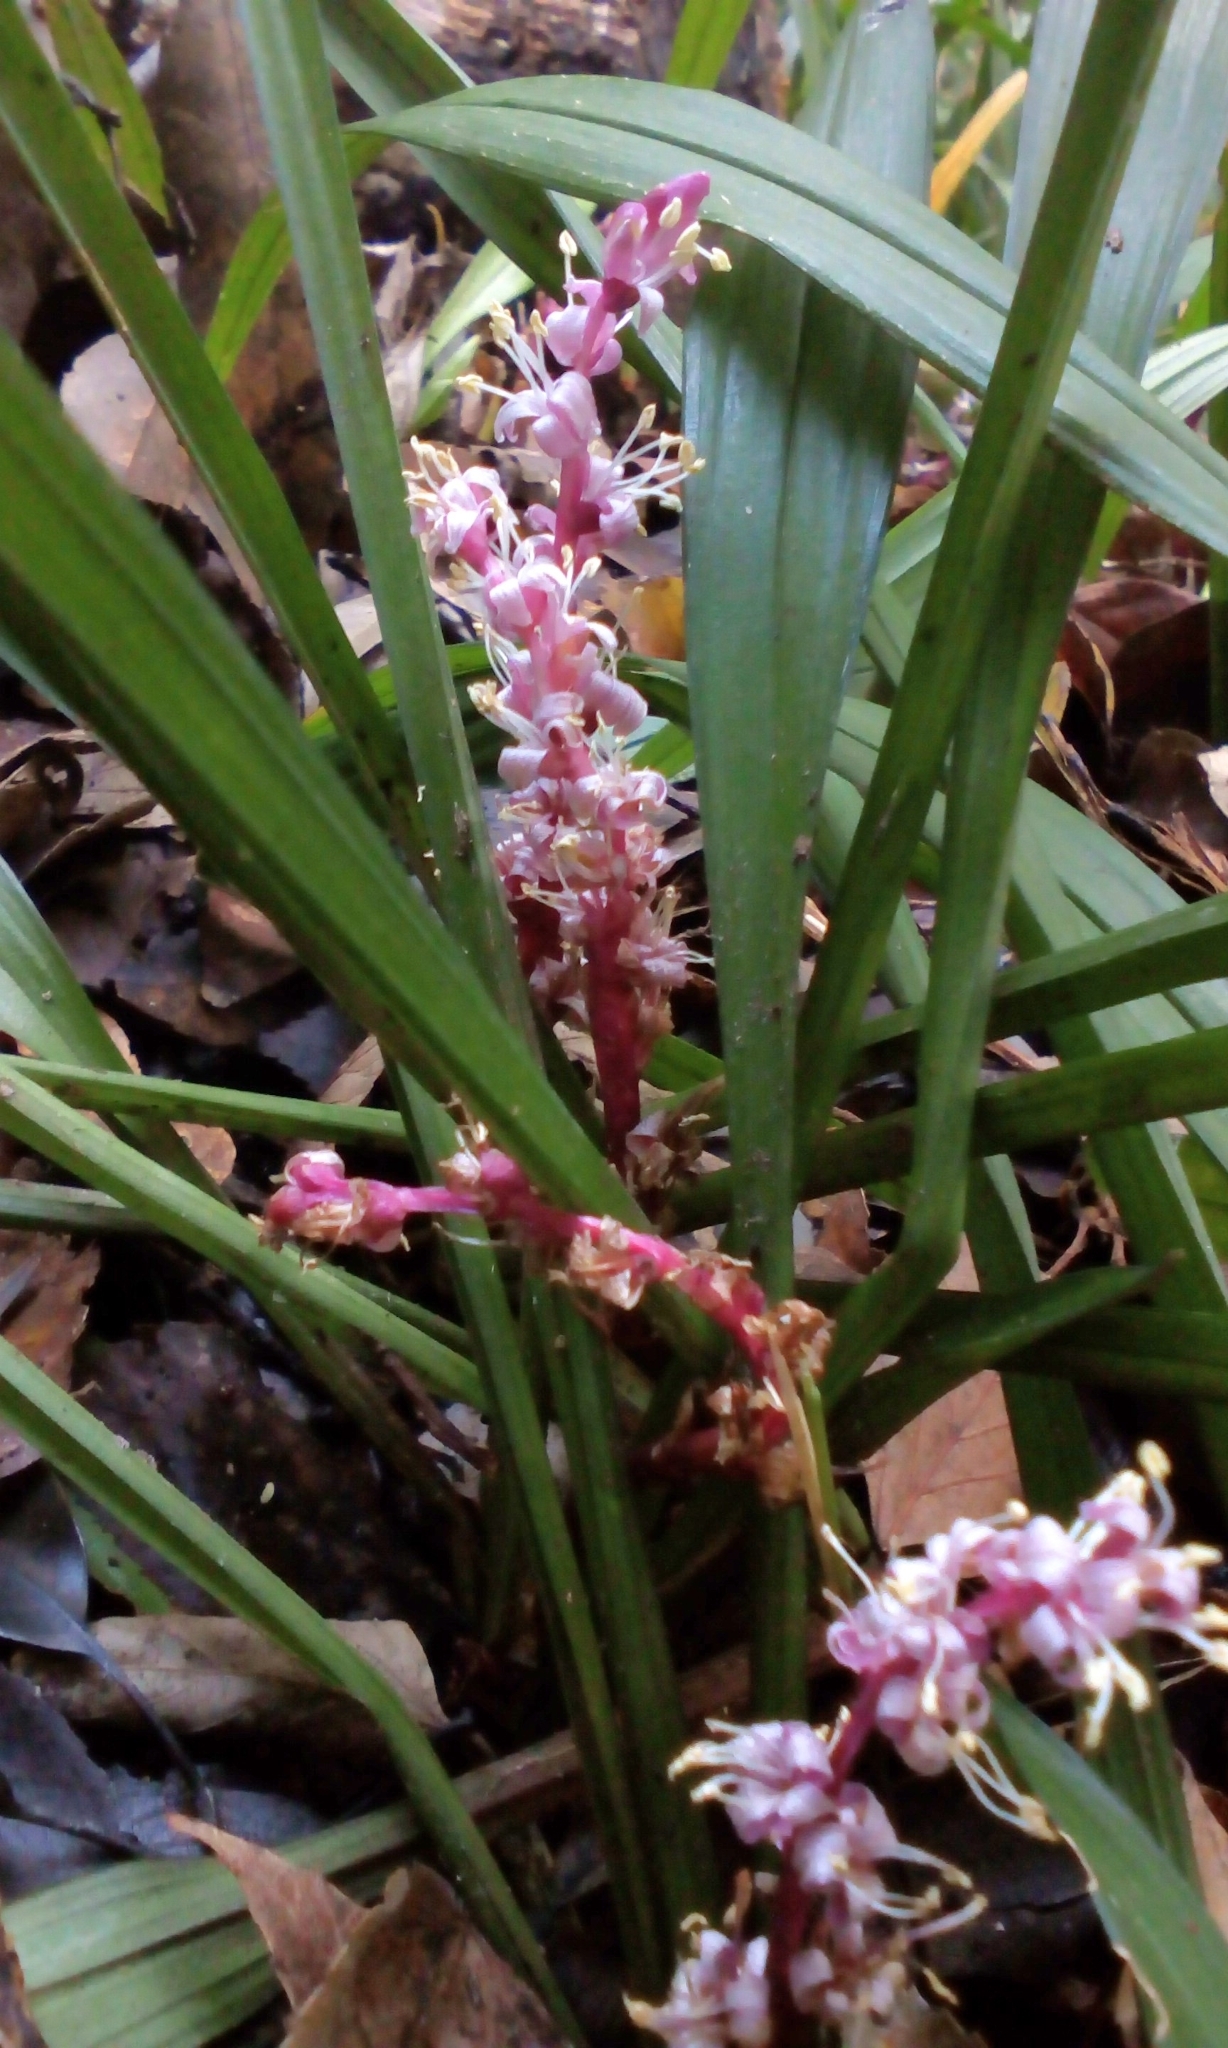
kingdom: Plantae
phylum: Tracheophyta
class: Liliopsida
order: Asparagales
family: Asparagaceae
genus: Reineckea
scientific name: Reineckea carnea
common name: Reineckea
